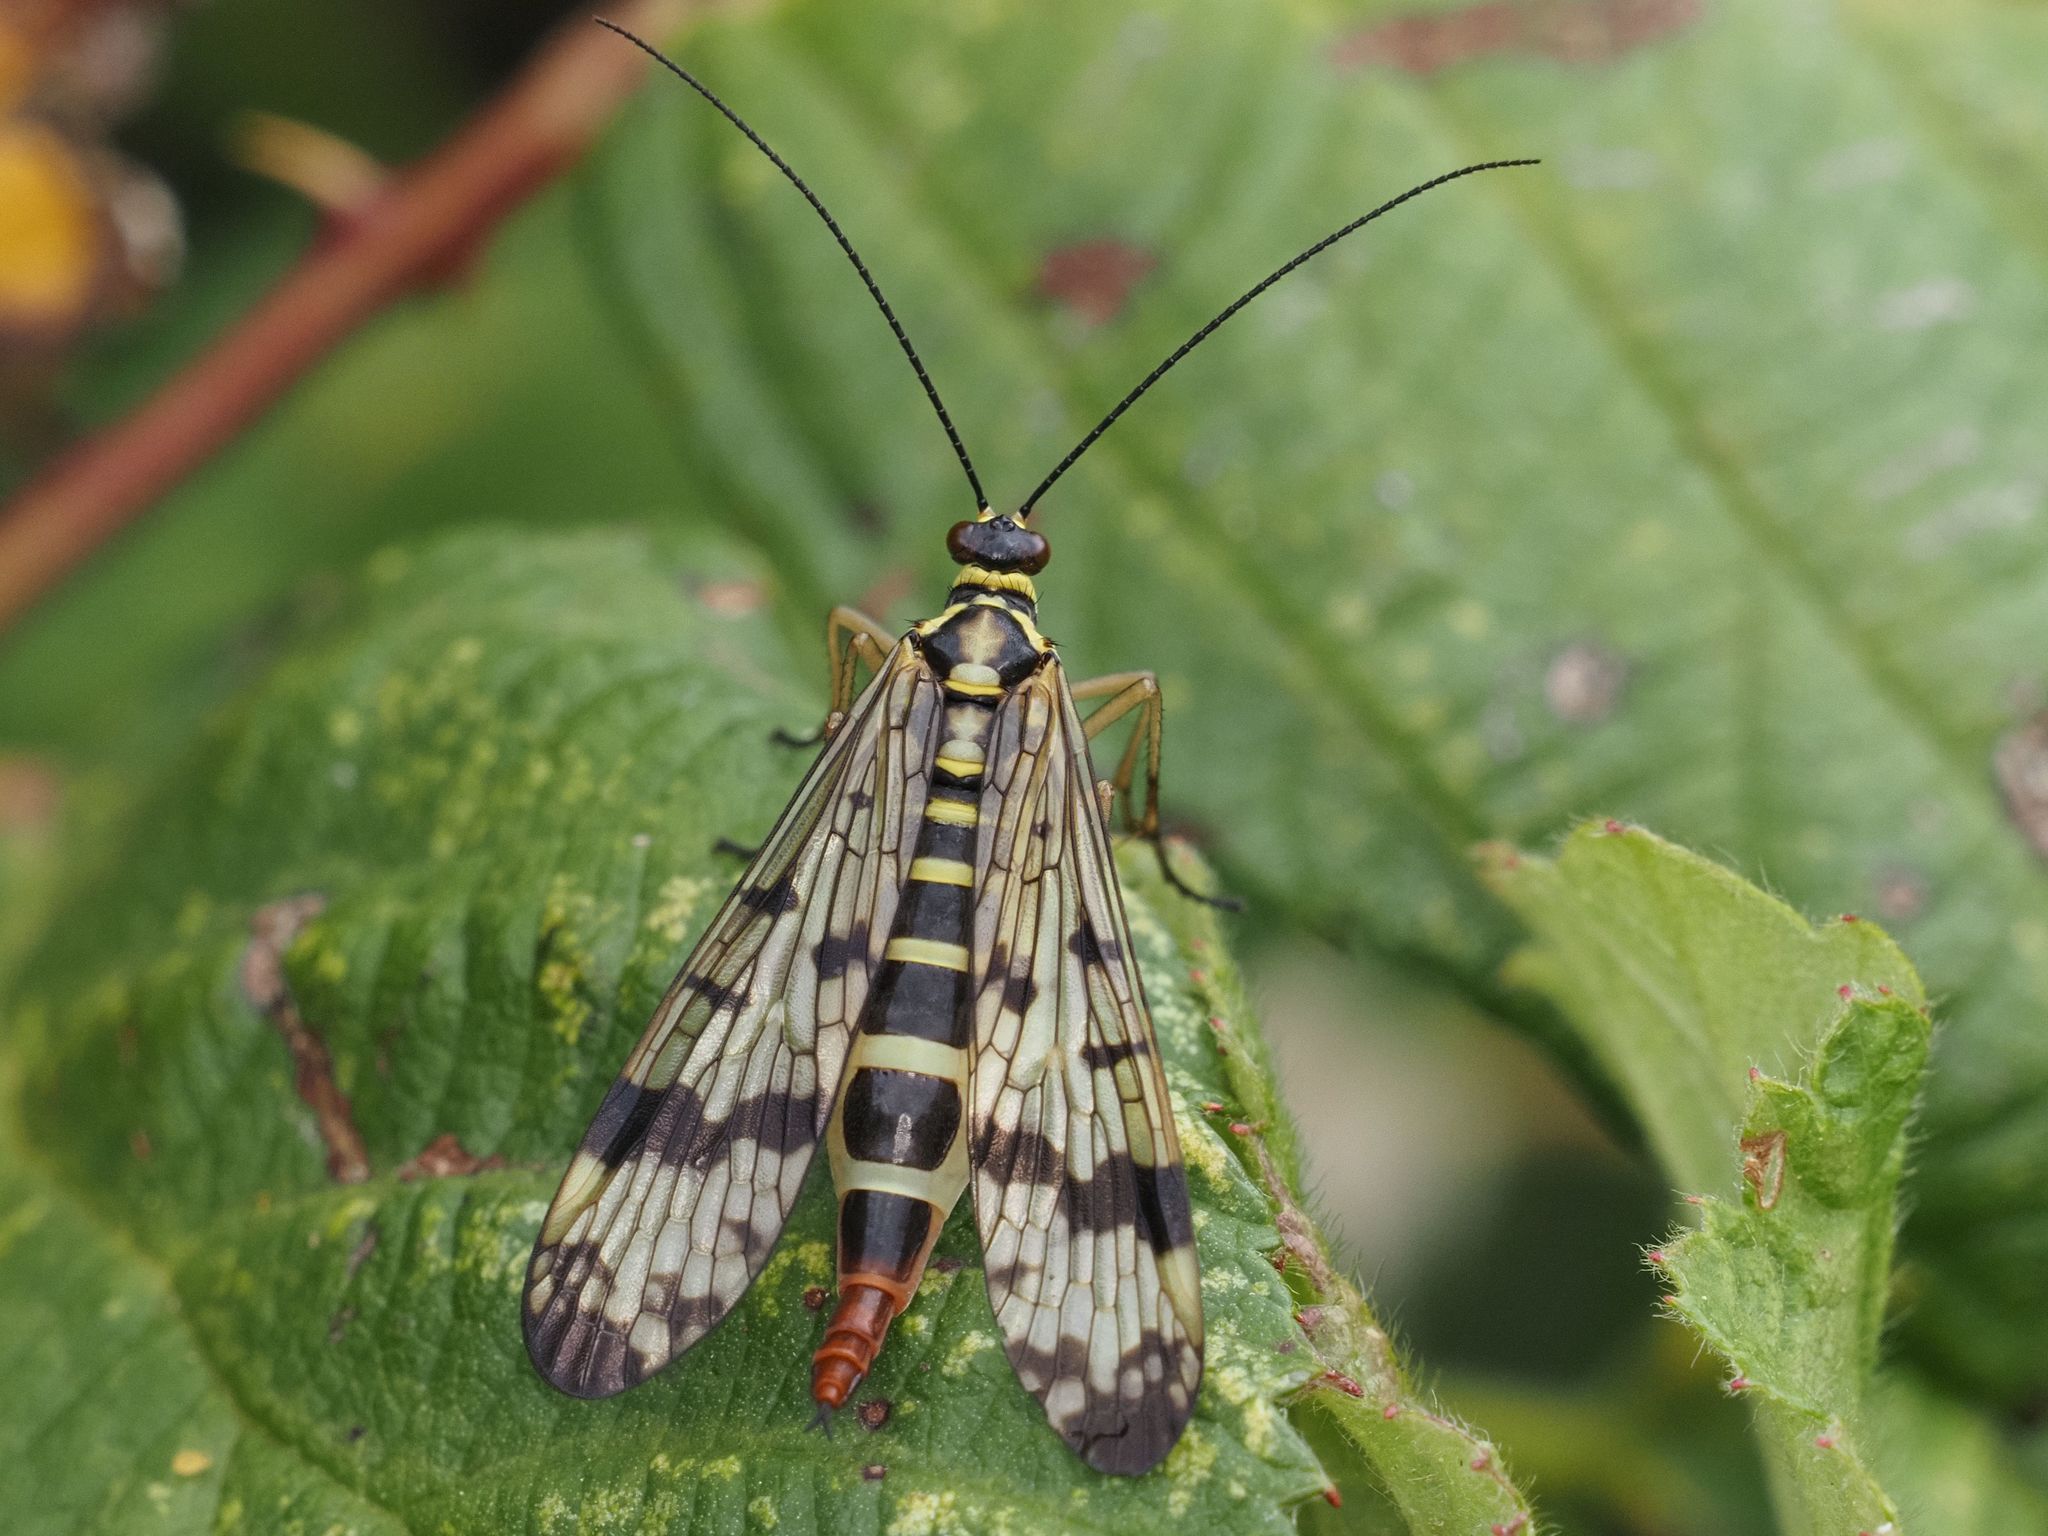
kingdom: Animalia
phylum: Arthropoda
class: Insecta
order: Mecoptera
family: Panorpidae
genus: Panorpa
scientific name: Panorpa communis
